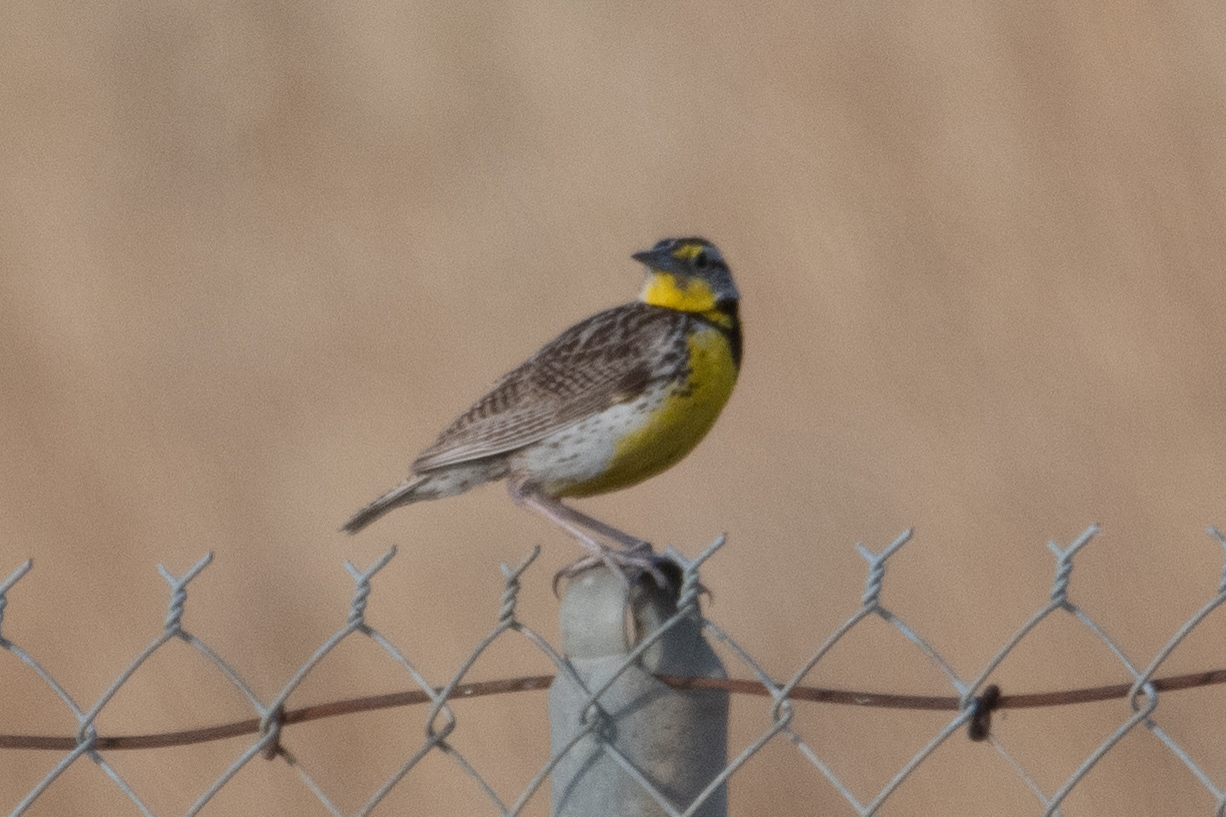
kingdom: Animalia
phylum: Chordata
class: Aves
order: Passeriformes
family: Icteridae
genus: Sturnella
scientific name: Sturnella neglecta
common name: Western meadowlark
